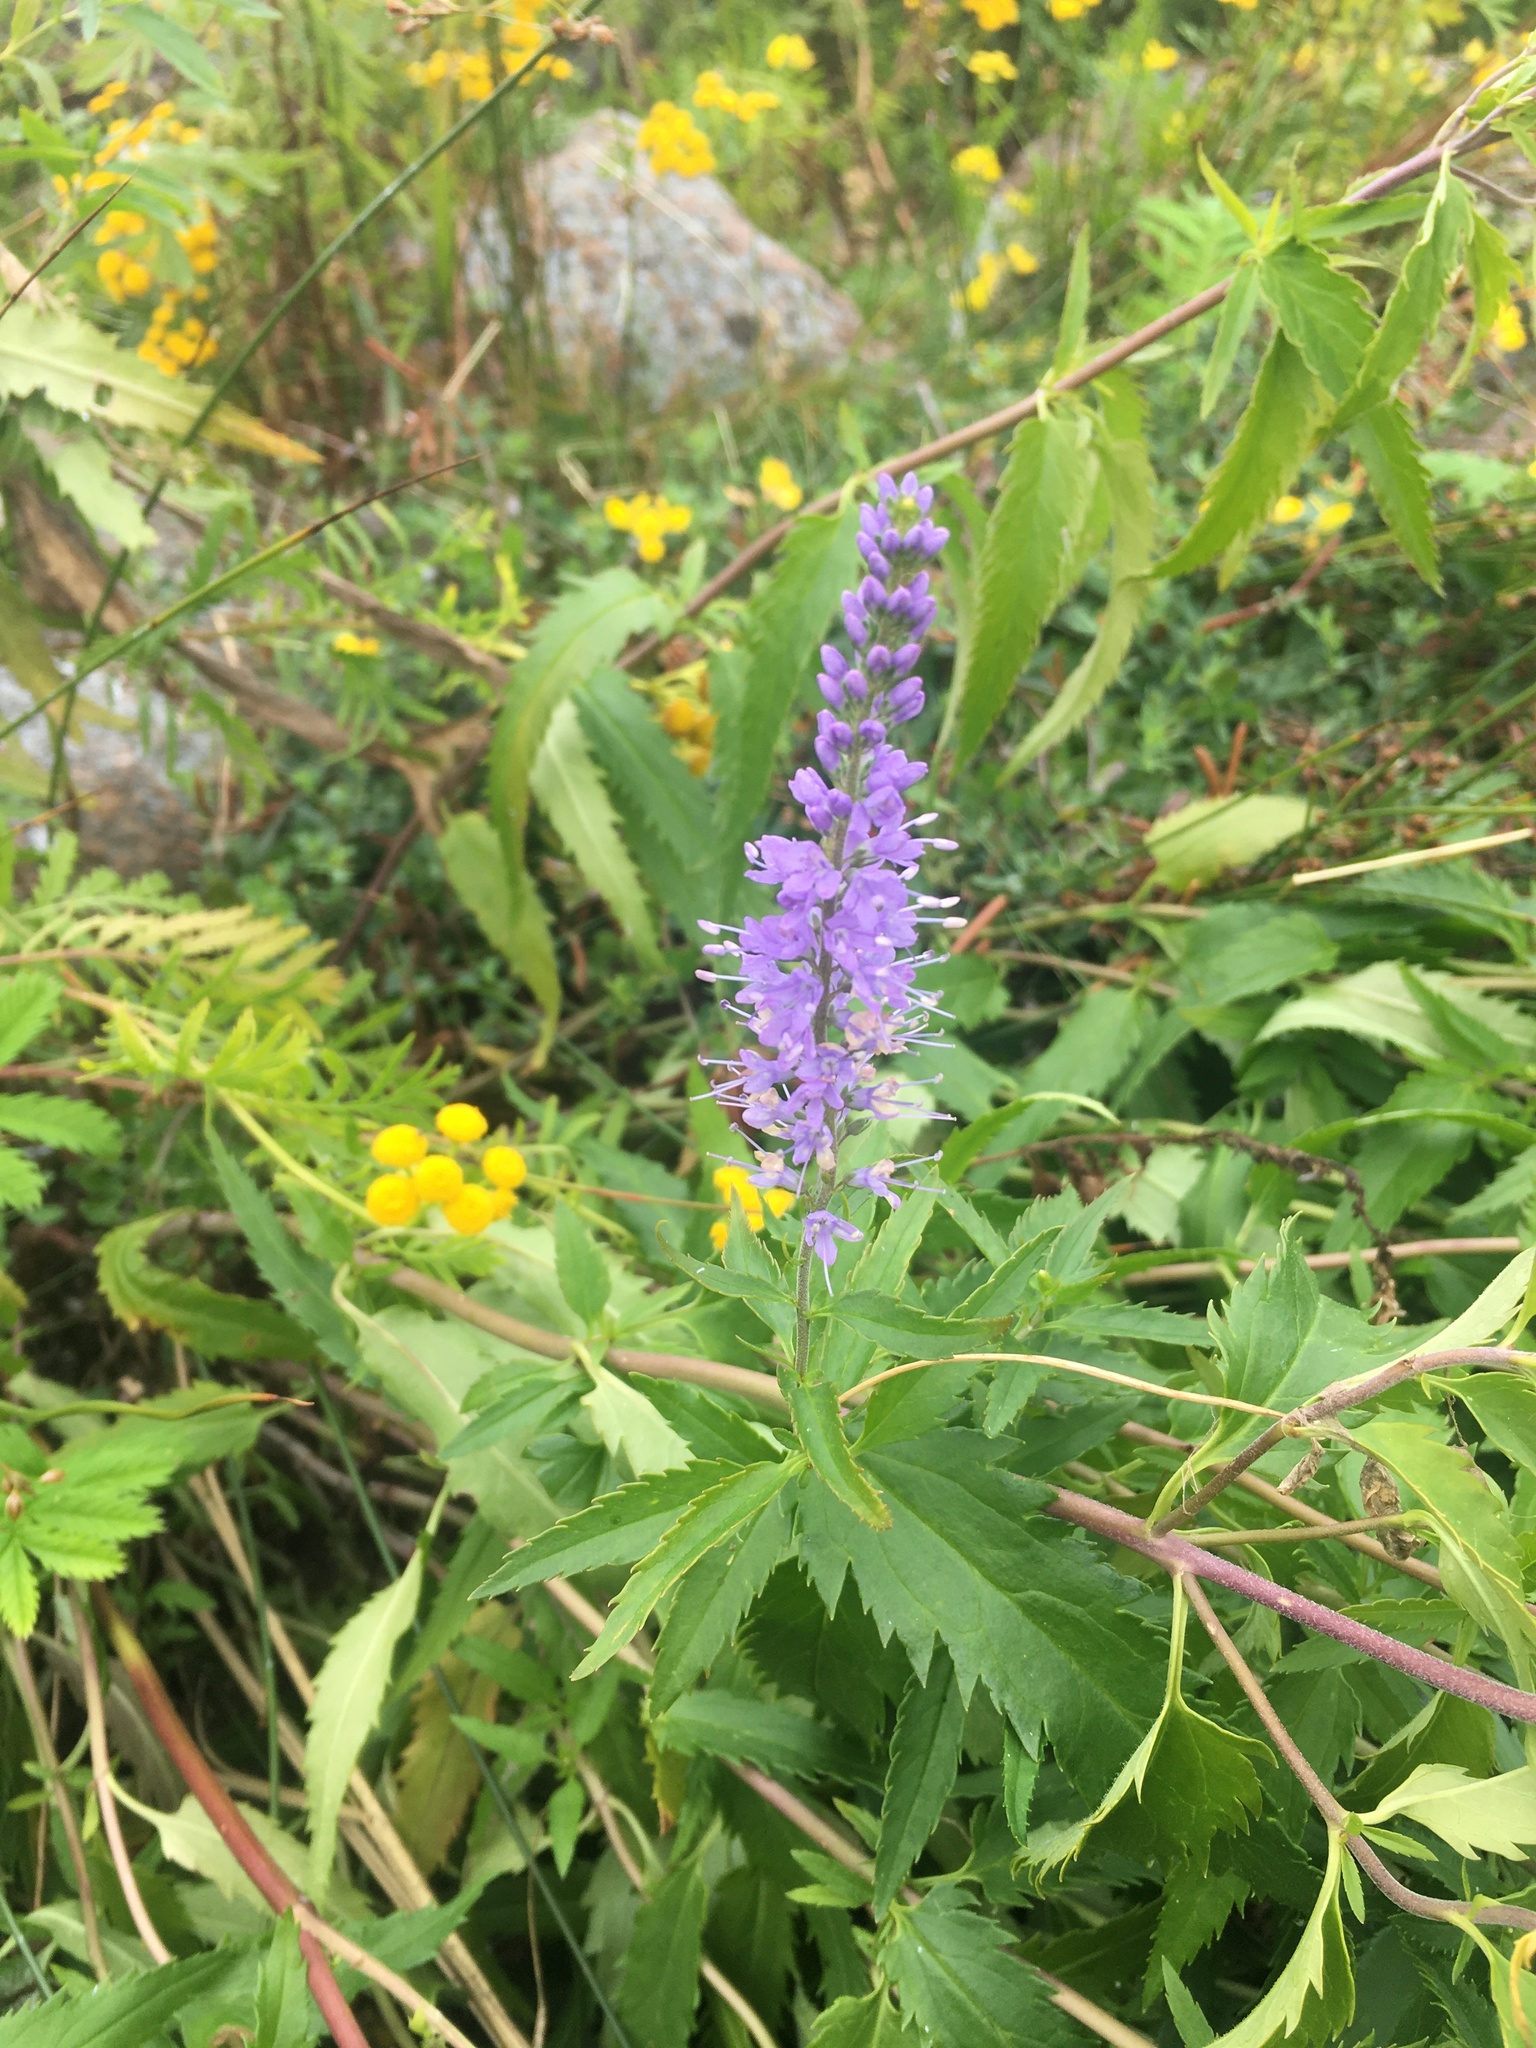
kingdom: Plantae
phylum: Tracheophyta
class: Magnoliopsida
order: Lamiales
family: Plantaginaceae
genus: Veronica
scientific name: Veronica longifolia
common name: Garden speedwell
